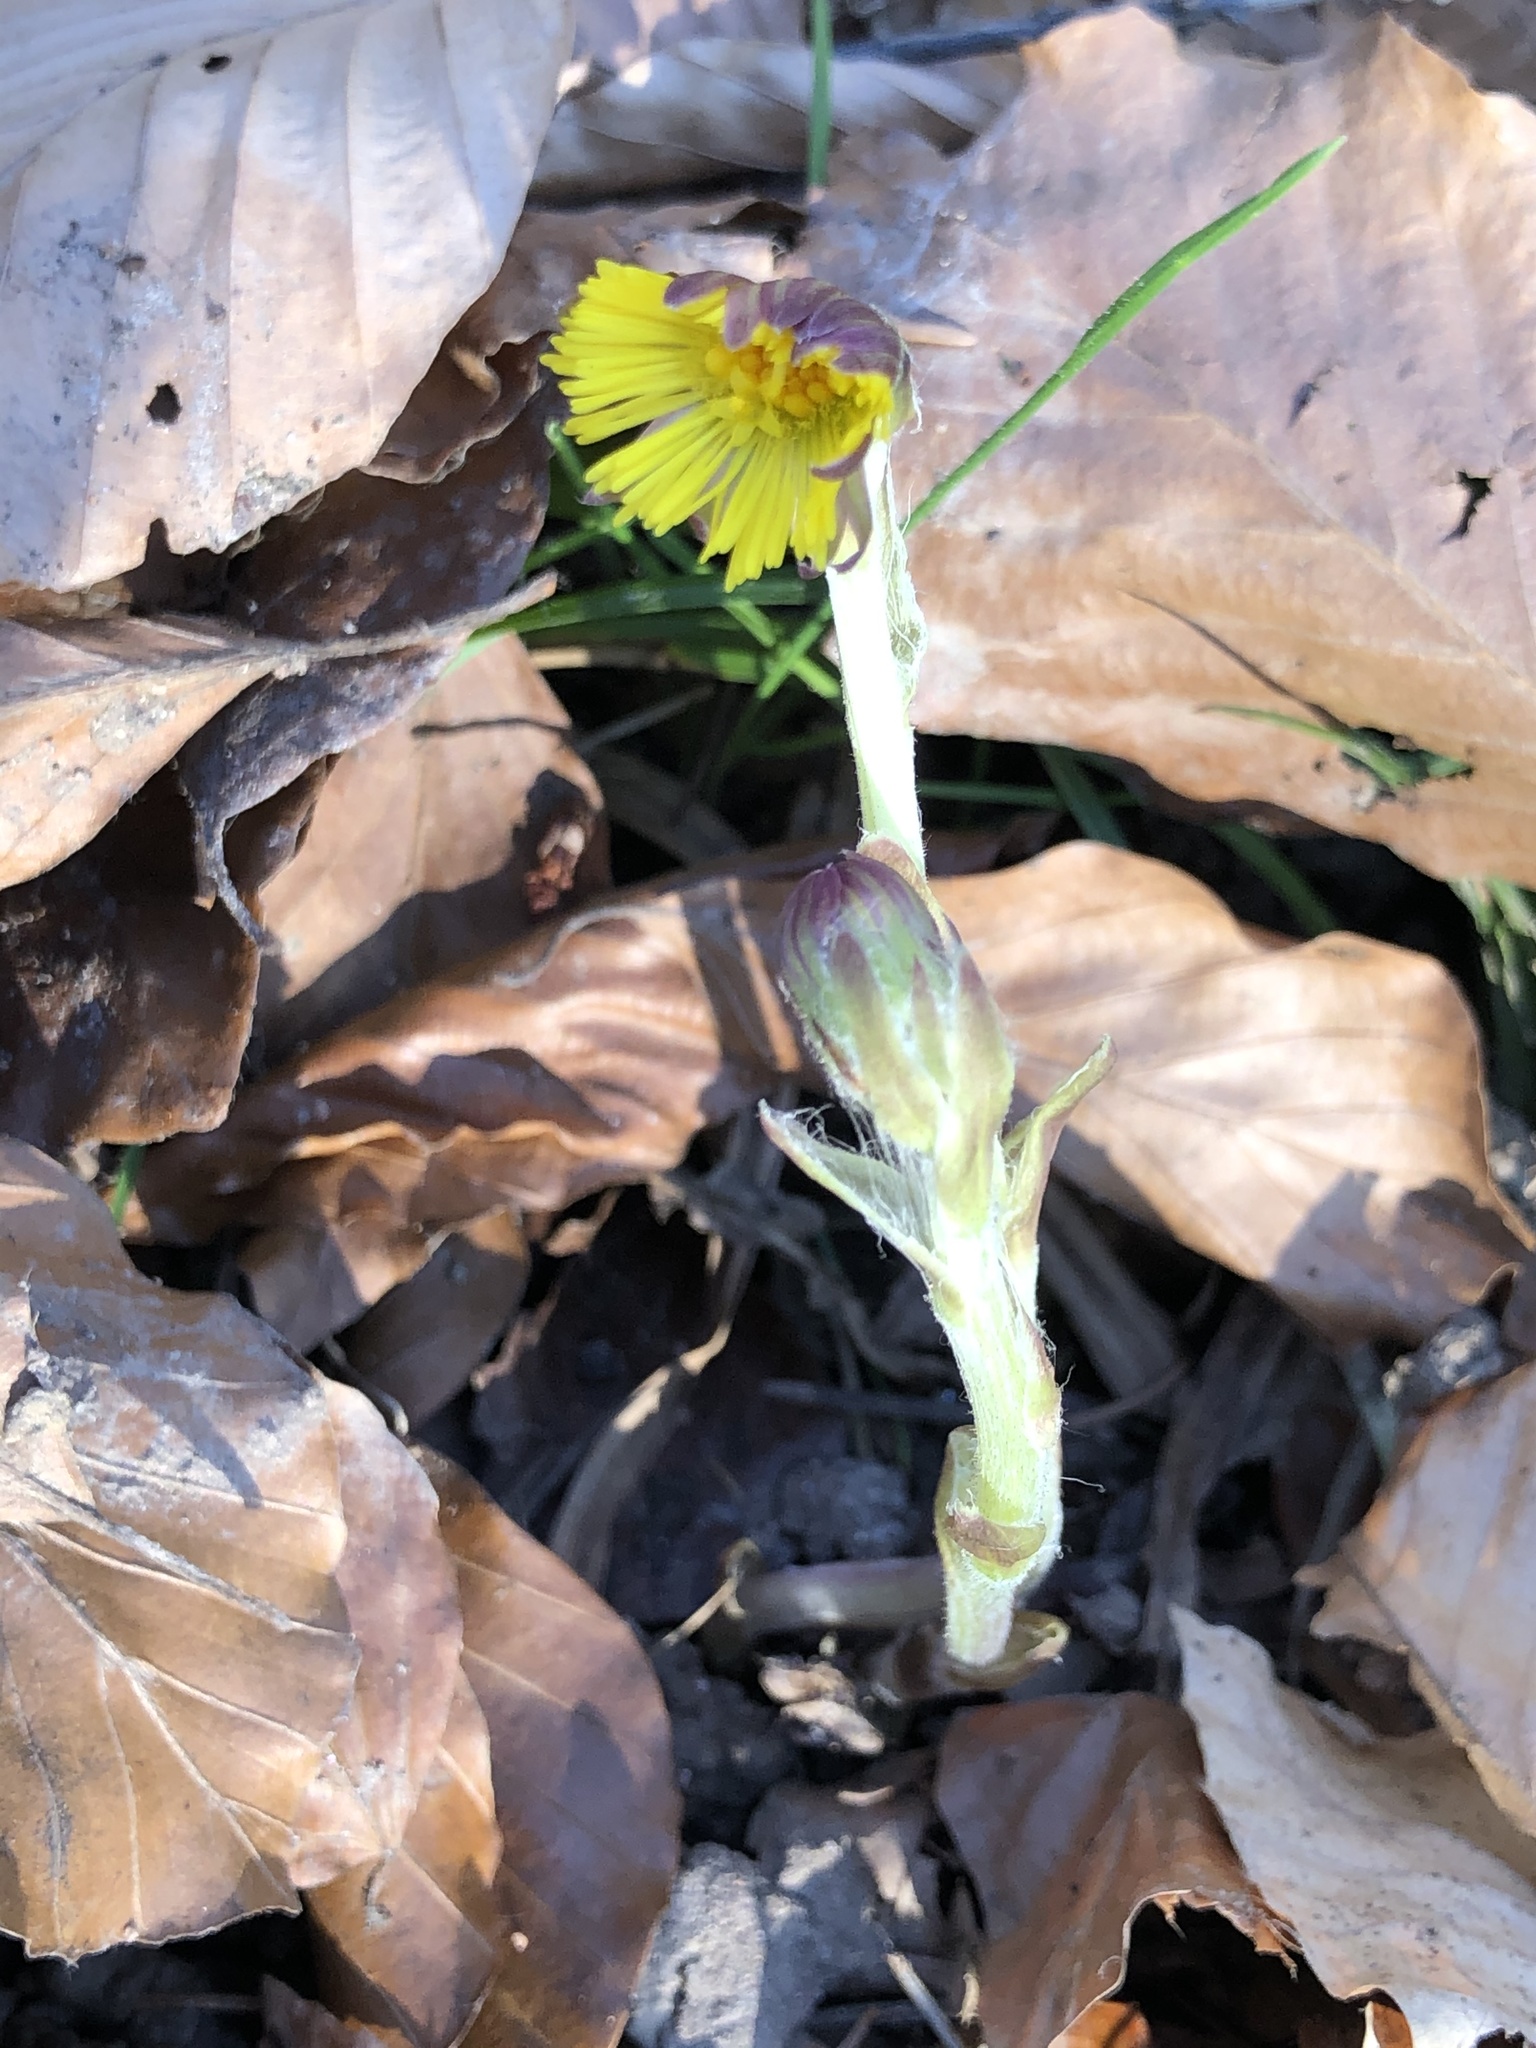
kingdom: Plantae
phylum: Tracheophyta
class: Magnoliopsida
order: Asterales
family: Asteraceae
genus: Tussilago
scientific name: Tussilago farfara
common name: Coltsfoot
